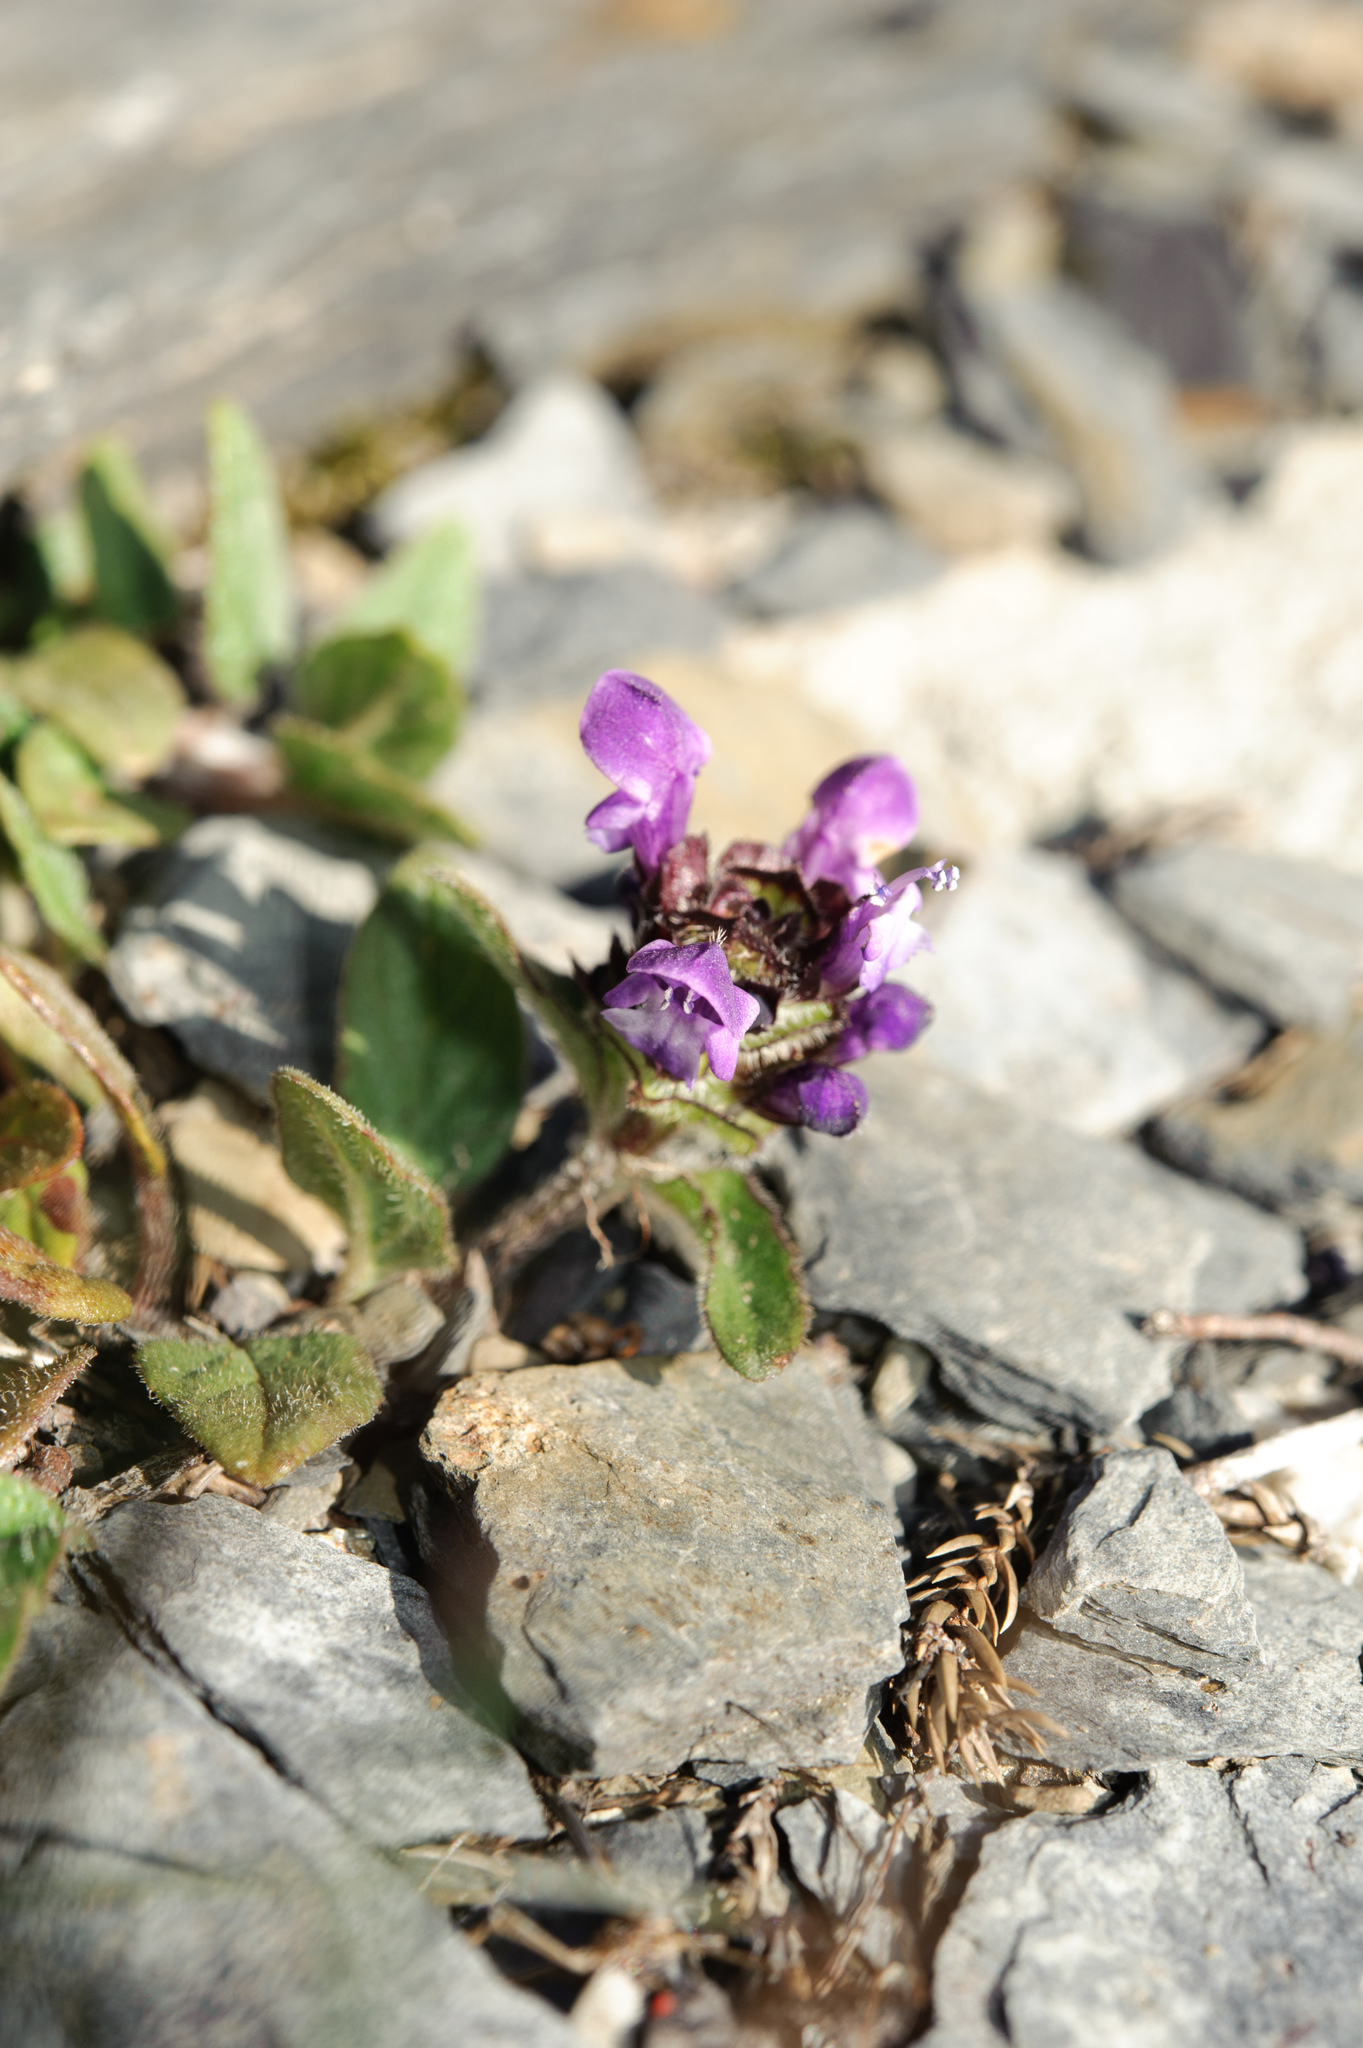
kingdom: Plantae
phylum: Tracheophyta
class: Magnoliopsida
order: Lamiales
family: Lamiaceae
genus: Prunella
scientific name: Prunella vulgaris
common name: Heal-all
